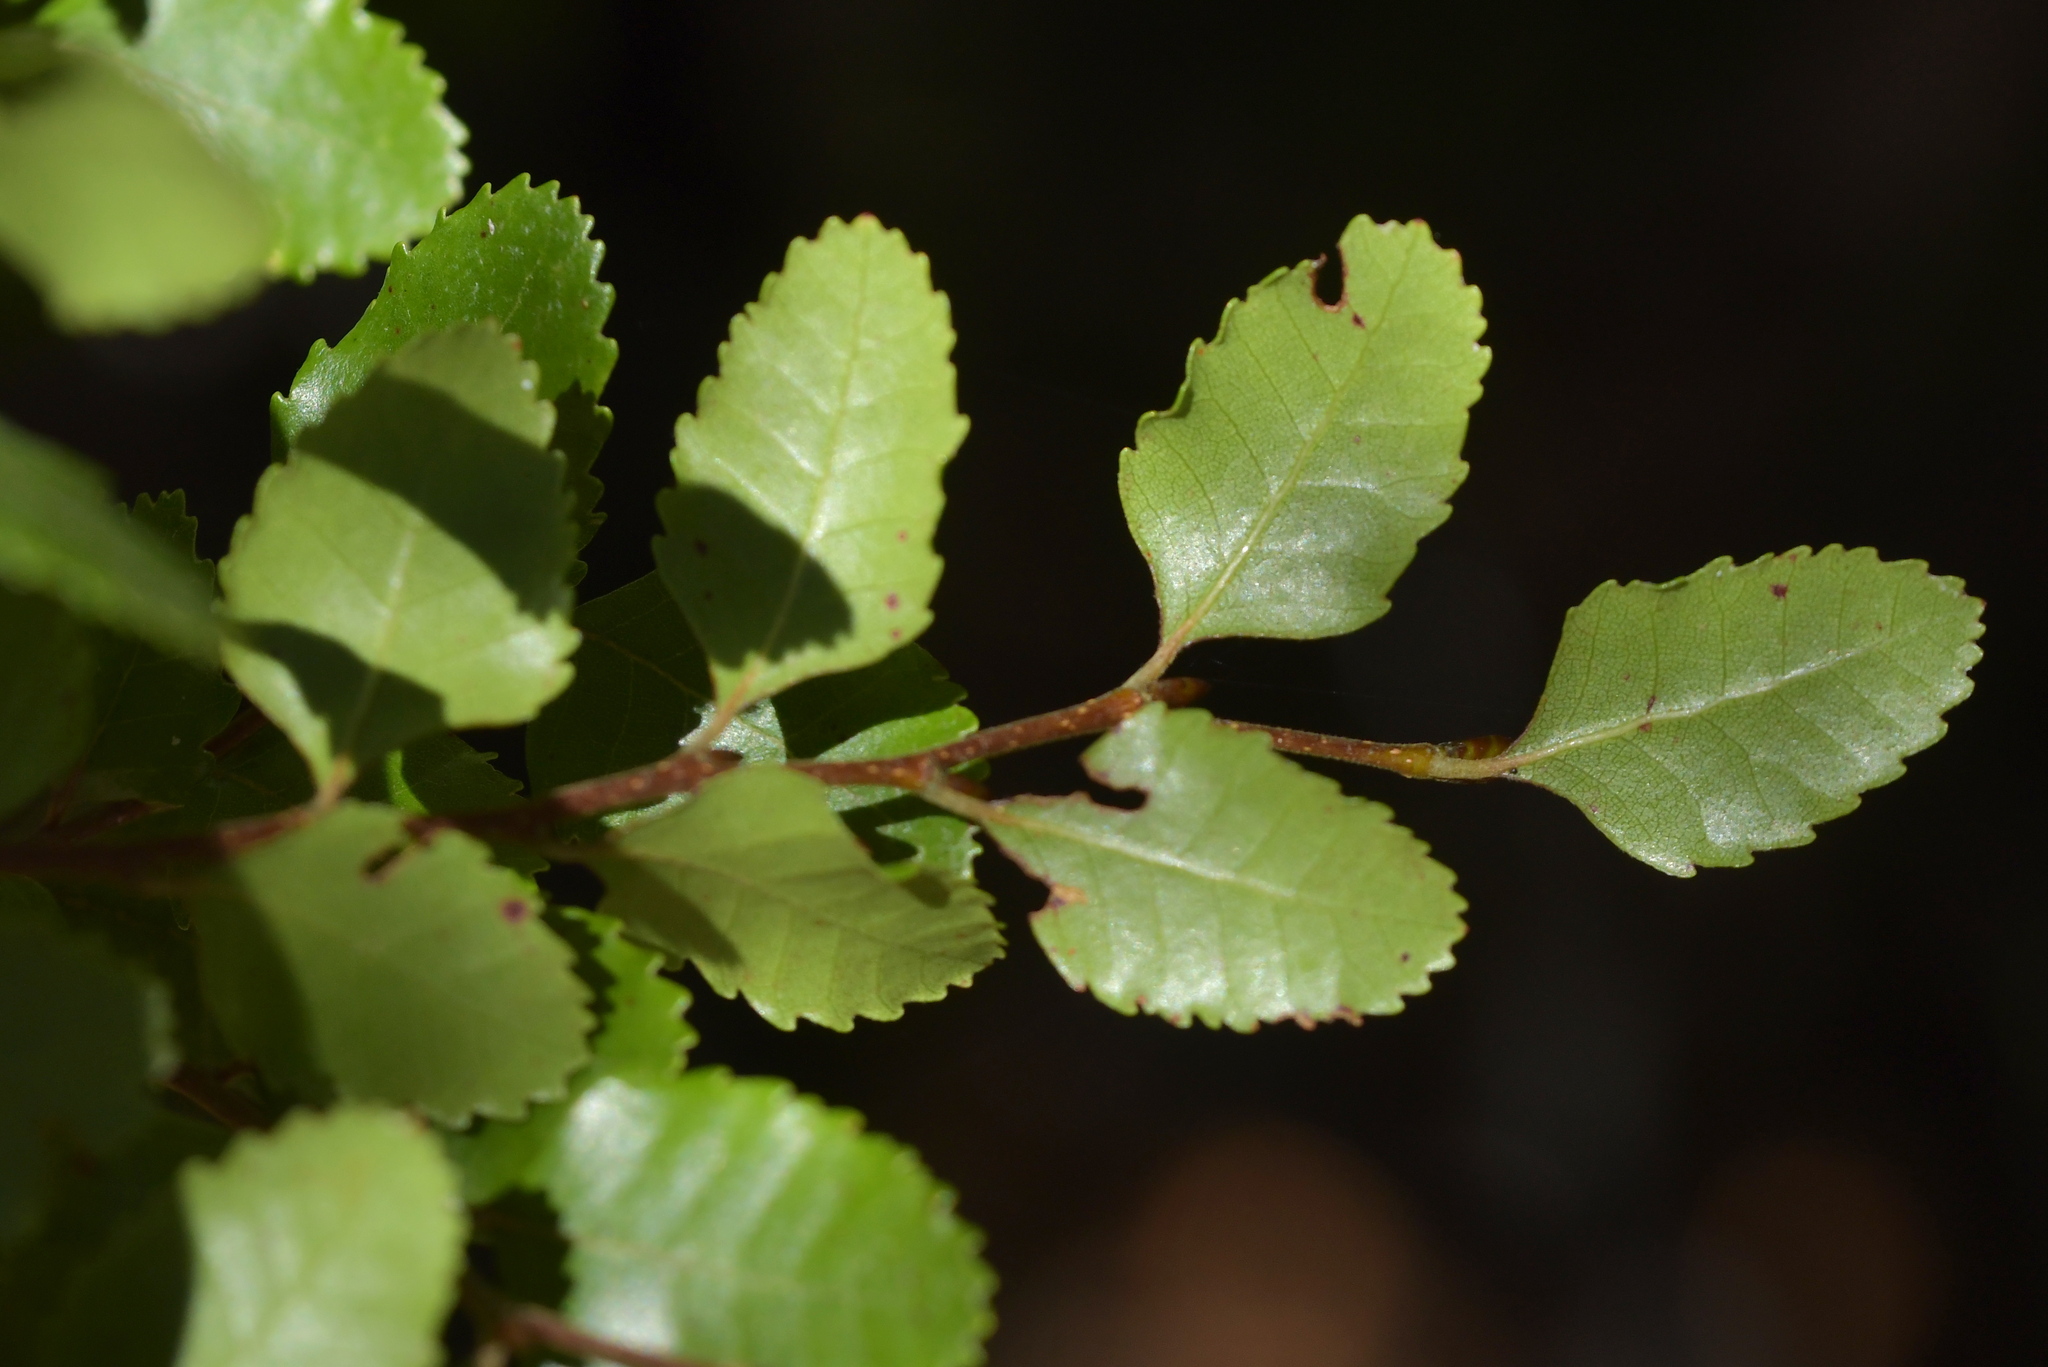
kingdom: Plantae
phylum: Tracheophyta
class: Magnoliopsida
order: Fagales
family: Nothofagaceae
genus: Nothofagus
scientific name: Nothofagus truncata
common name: Hard beech
